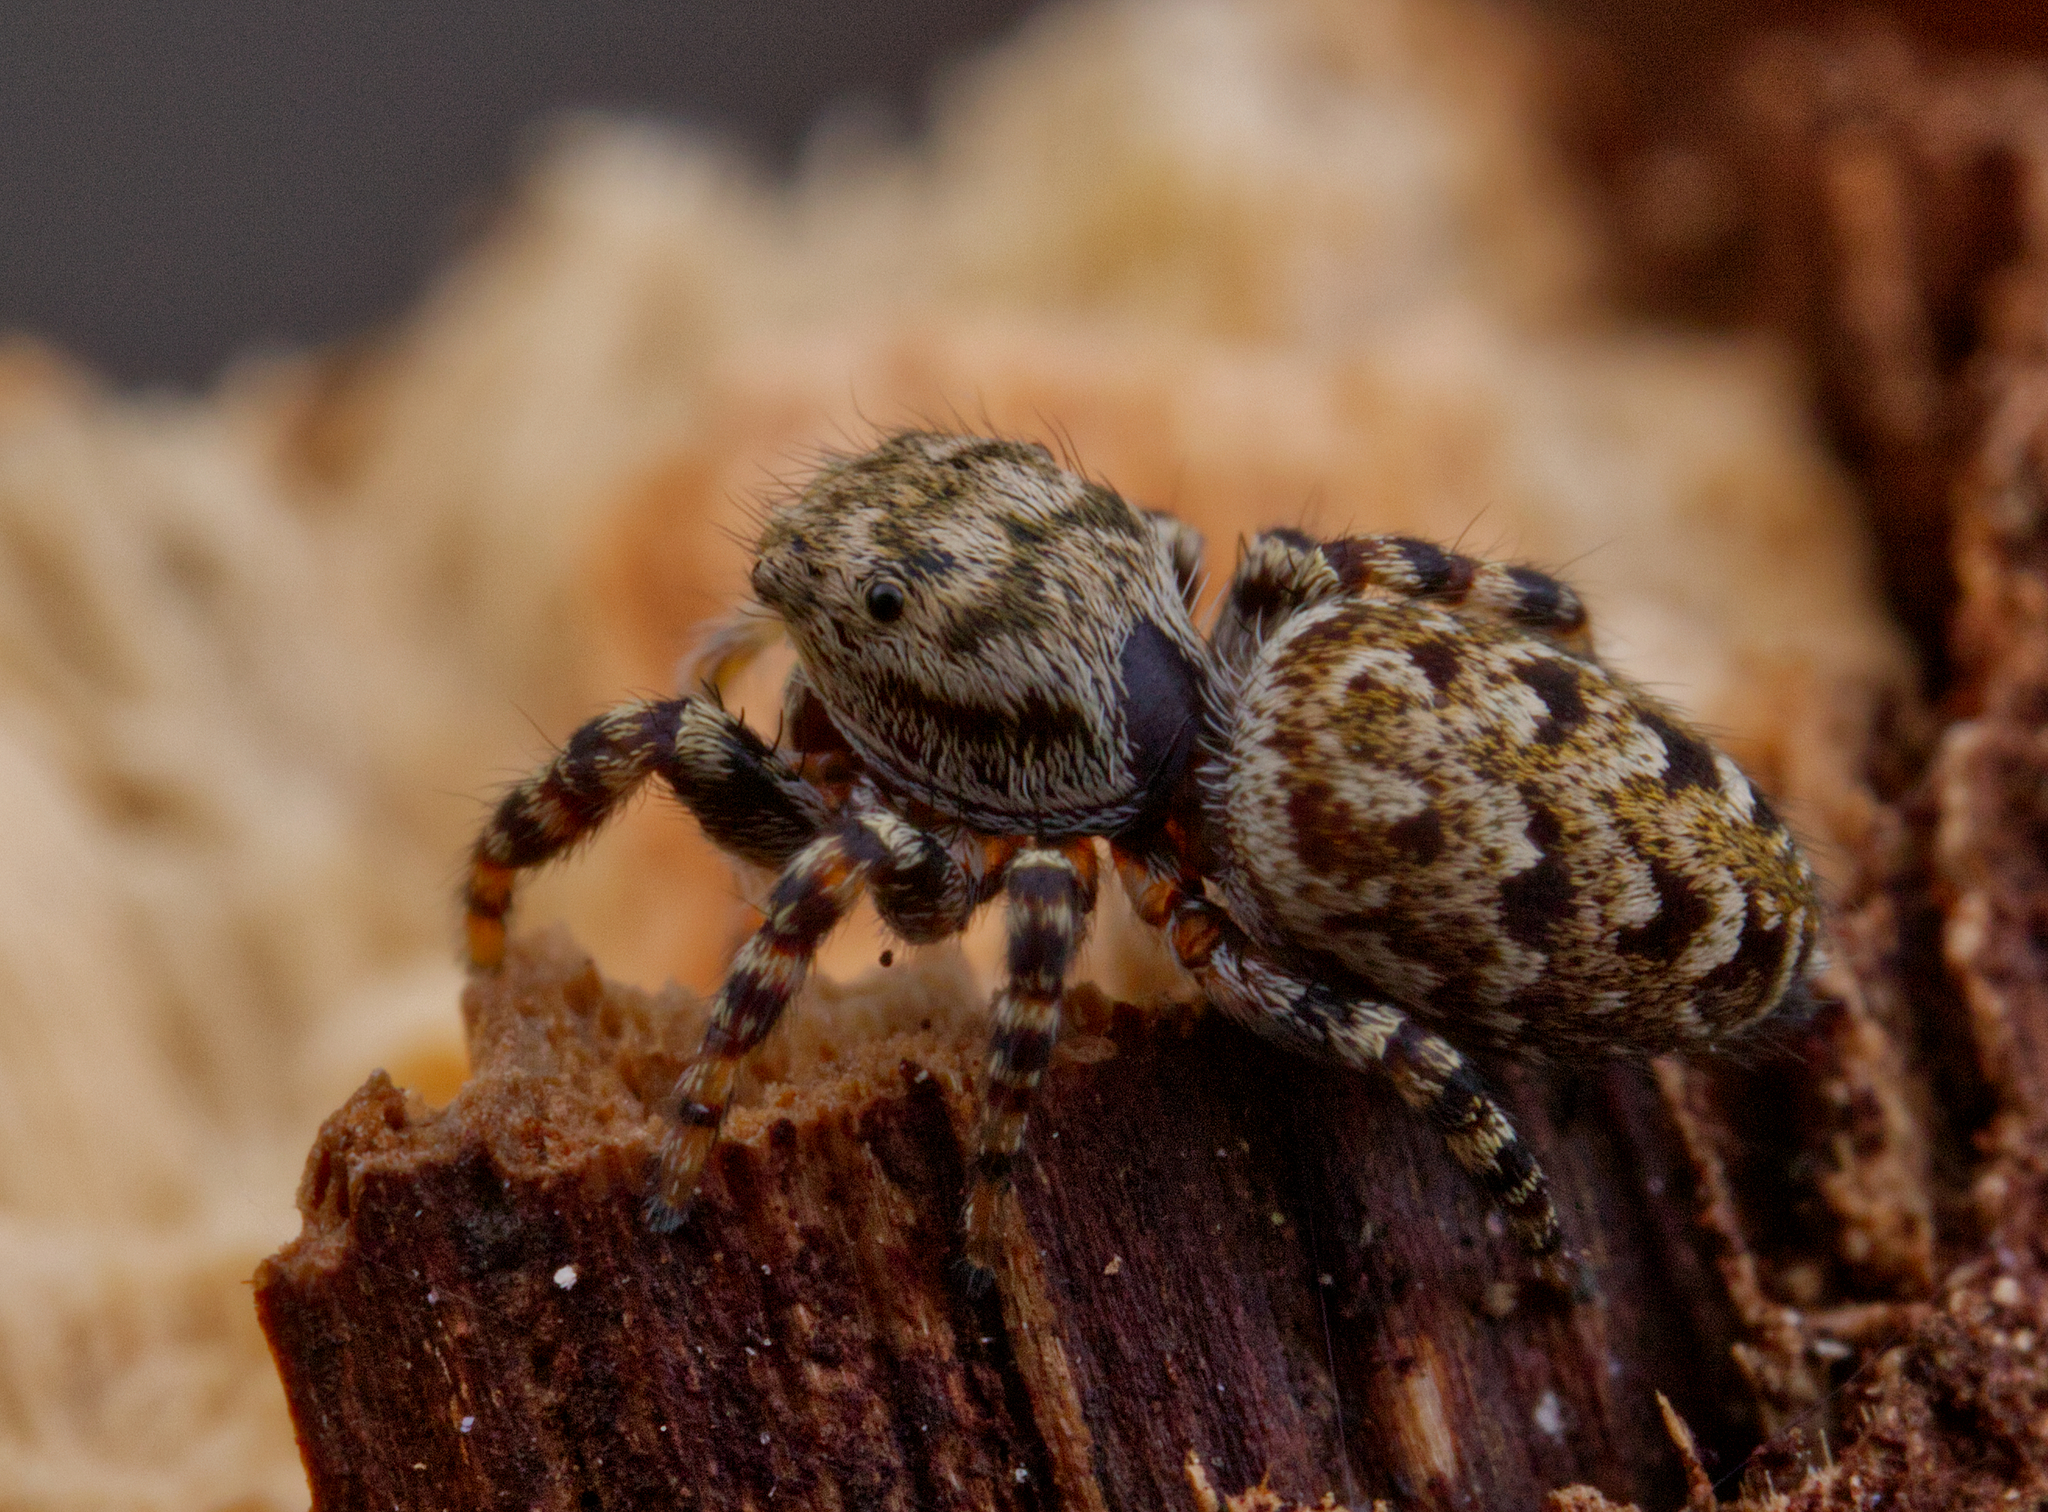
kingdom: Animalia
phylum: Arthropoda
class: Arachnida
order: Araneae
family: Salticidae
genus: Pelegrina
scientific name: Pelegrina galathea
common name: Jumping spiders
